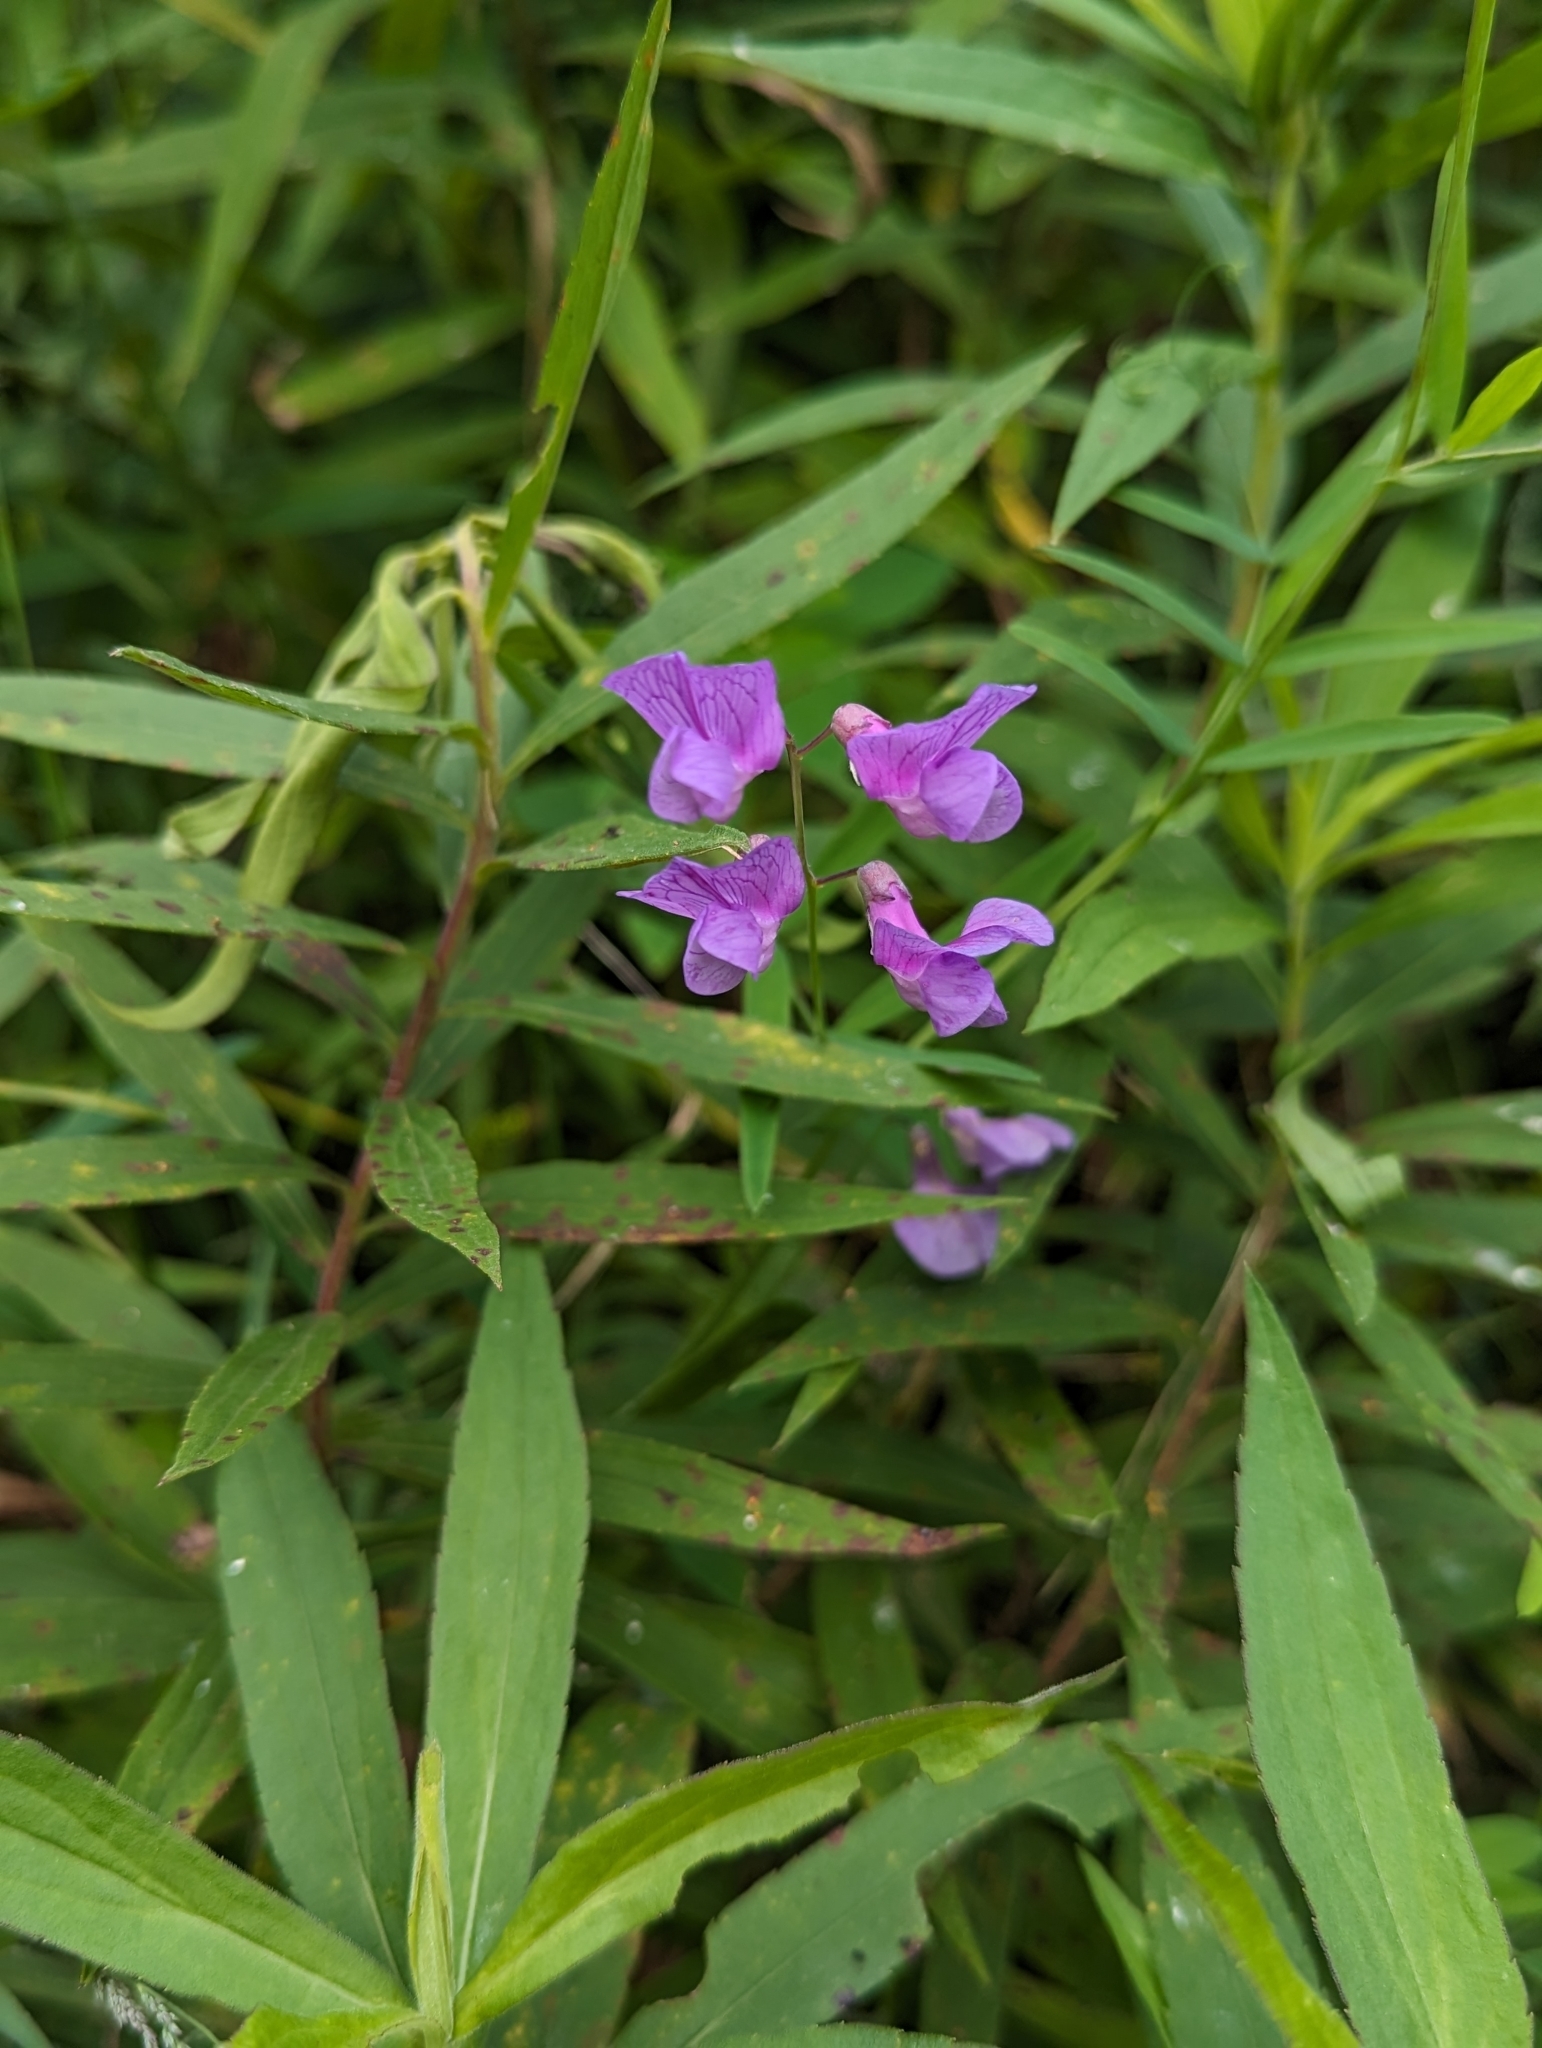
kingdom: Plantae
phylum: Tracheophyta
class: Magnoliopsida
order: Fabales
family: Fabaceae
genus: Lathyrus
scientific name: Lathyrus palustris
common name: Marsh pea
